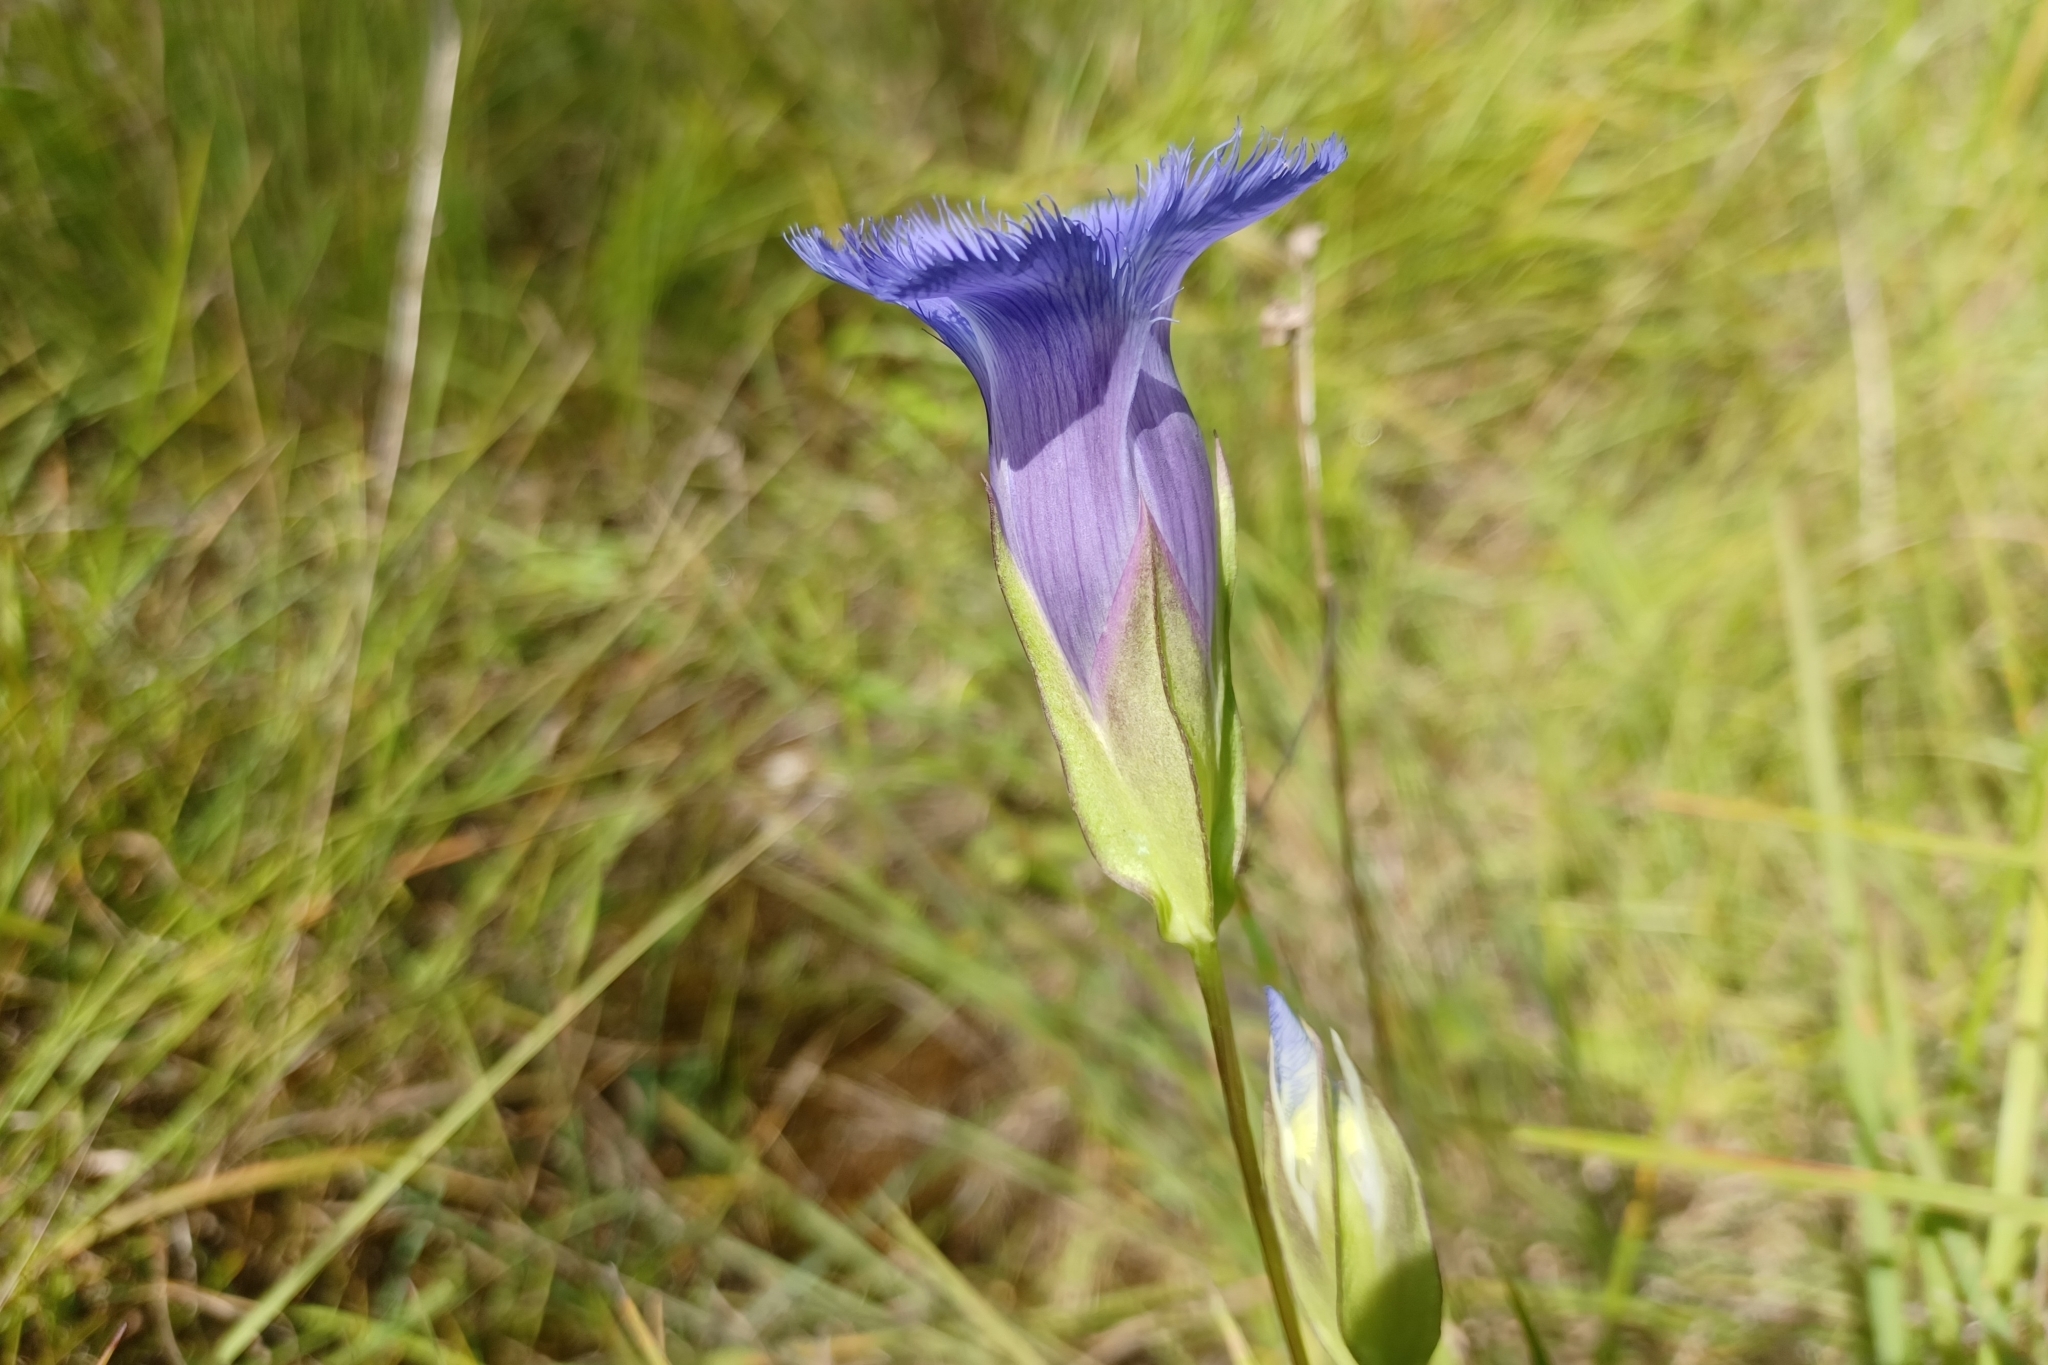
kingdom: Plantae
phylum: Tracheophyta
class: Magnoliopsida
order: Gentianales
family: Gentianaceae
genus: Gentianopsis
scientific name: Gentianopsis crinita
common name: Fringed-gentian
